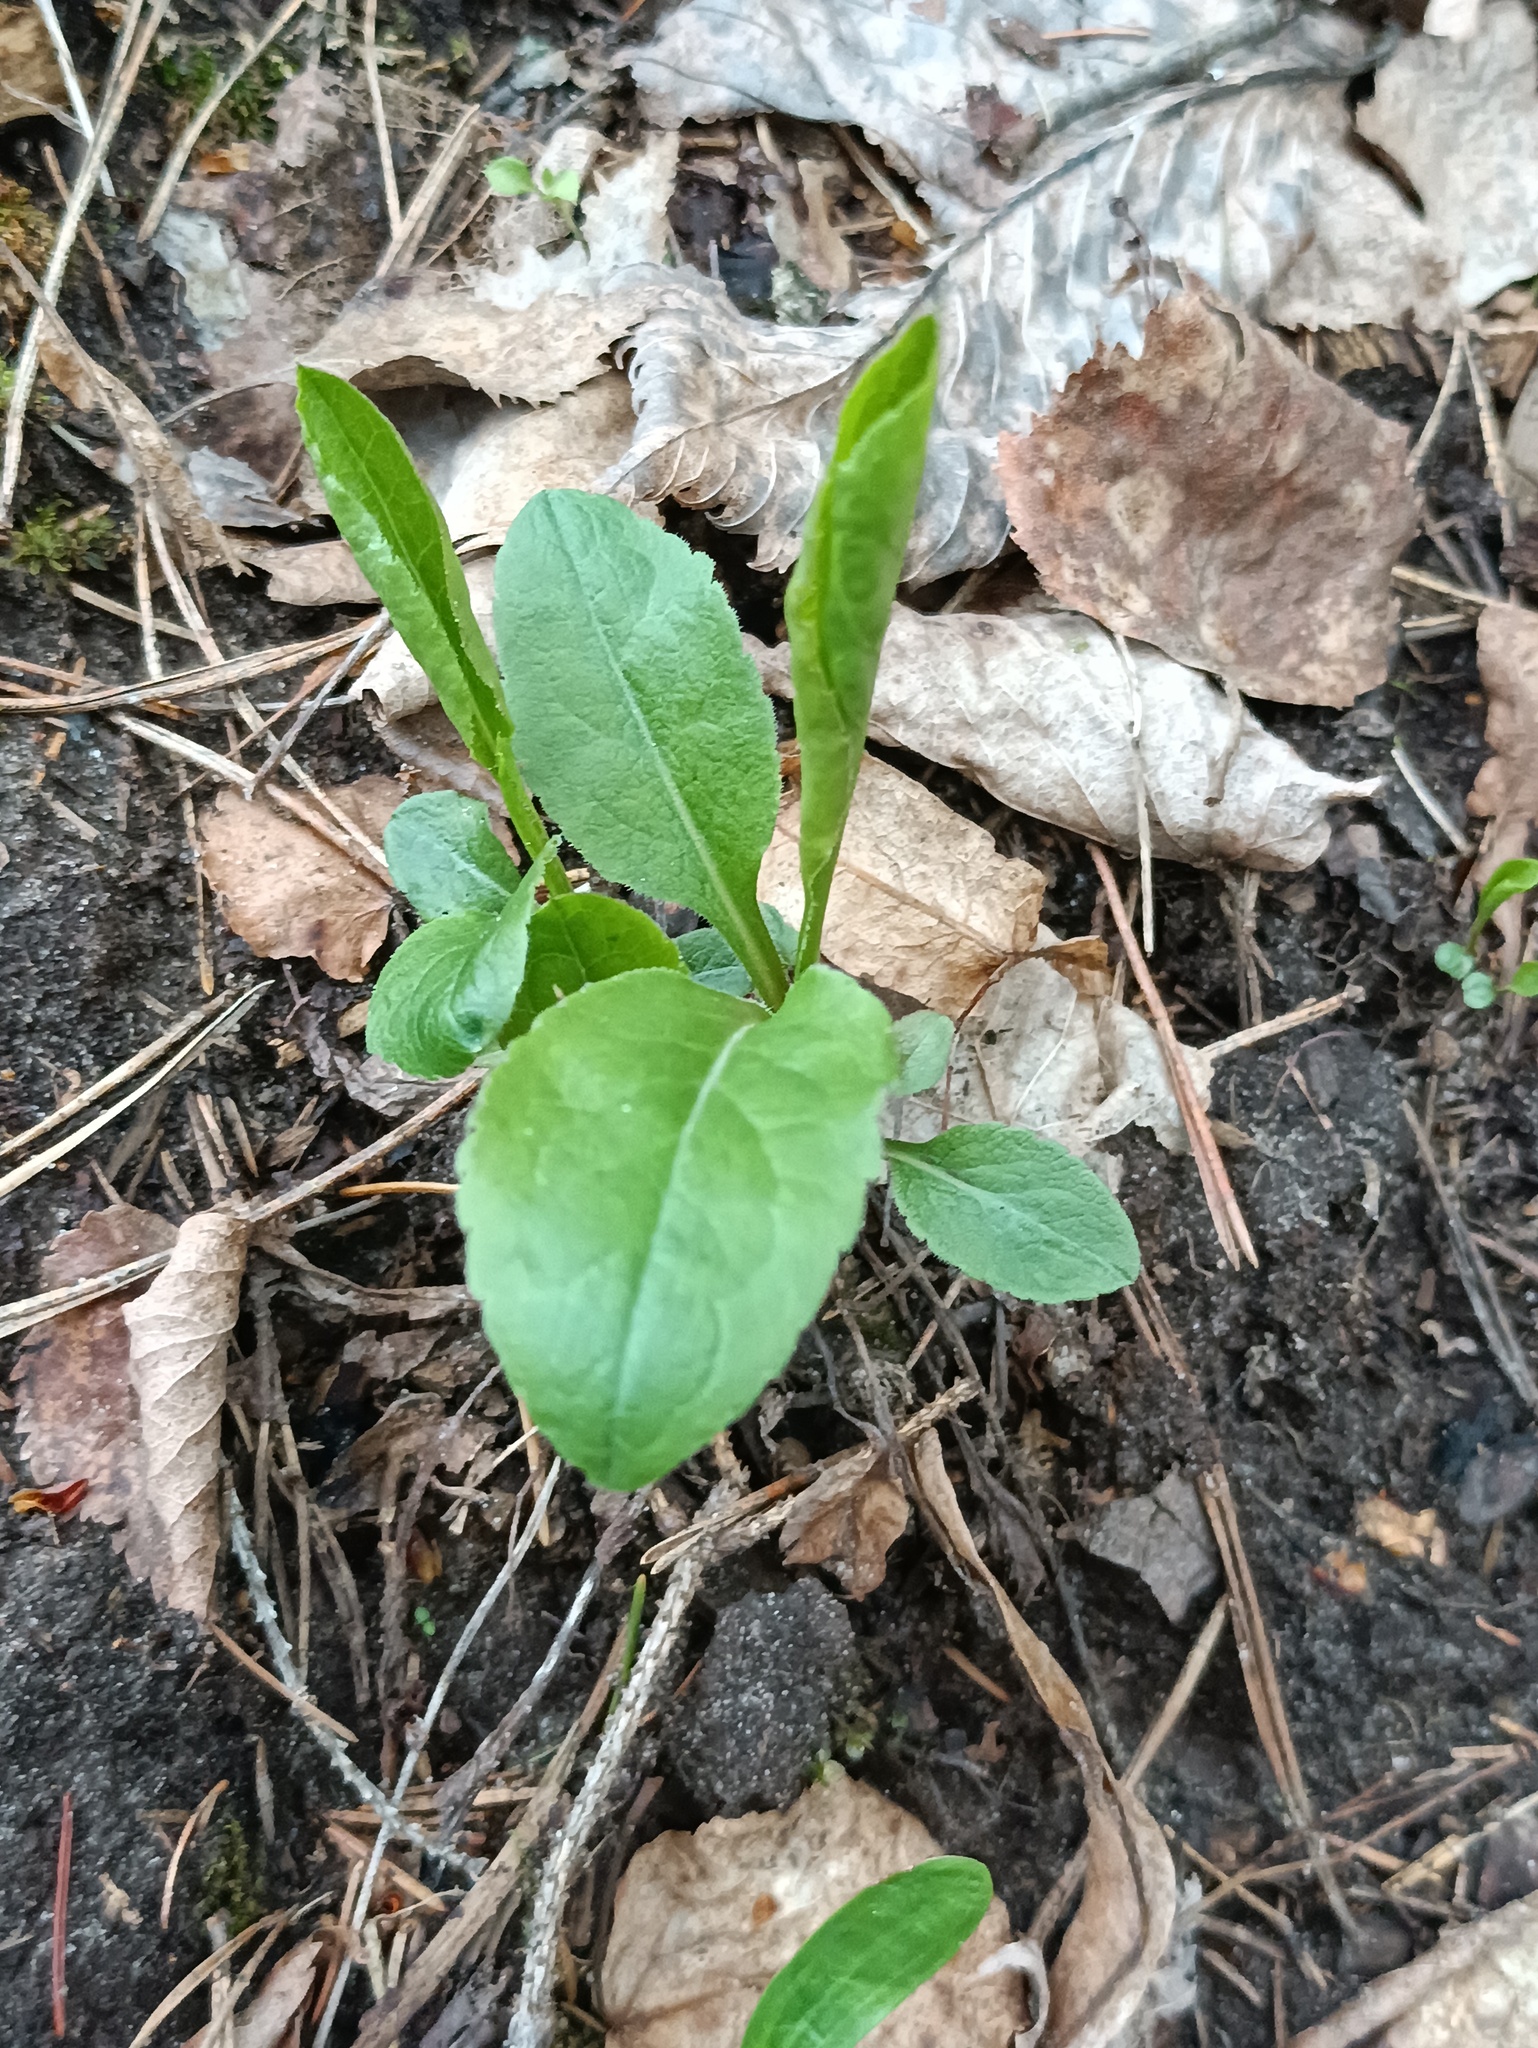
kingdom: Plantae
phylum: Tracheophyta
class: Magnoliopsida
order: Asterales
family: Asteraceae
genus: Solidago
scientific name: Solidago virgaurea
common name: Goldenrod
